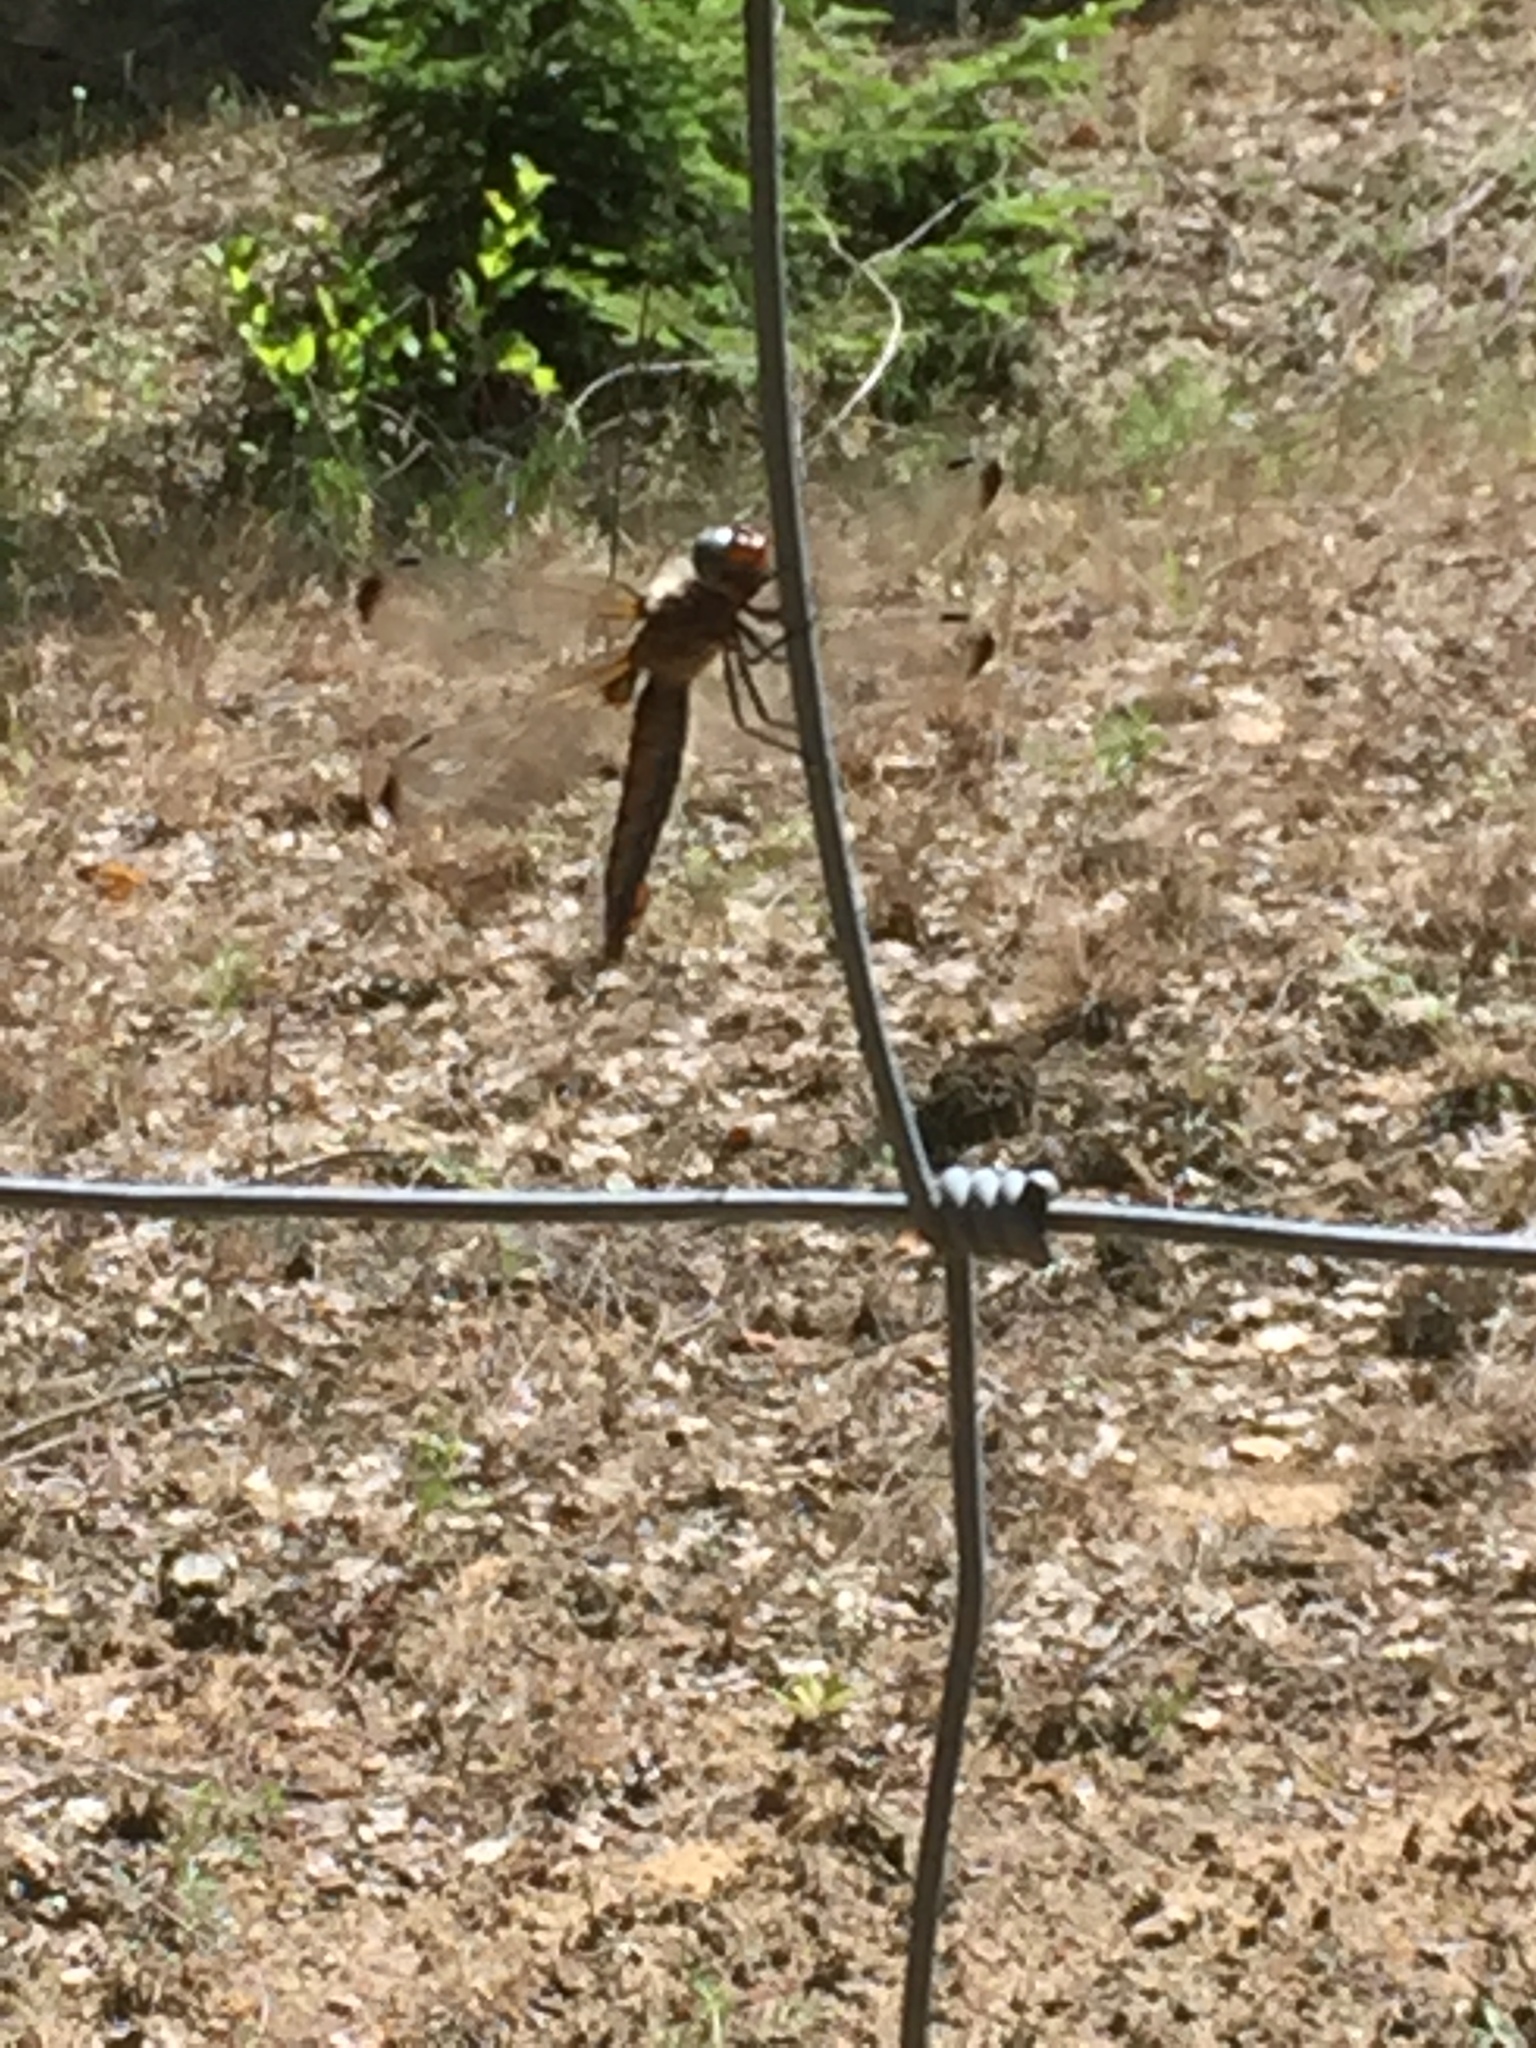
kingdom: Animalia
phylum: Arthropoda
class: Insecta
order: Odonata
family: Libellulidae
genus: Libellula
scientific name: Libellula fulva
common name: Blue chaser
